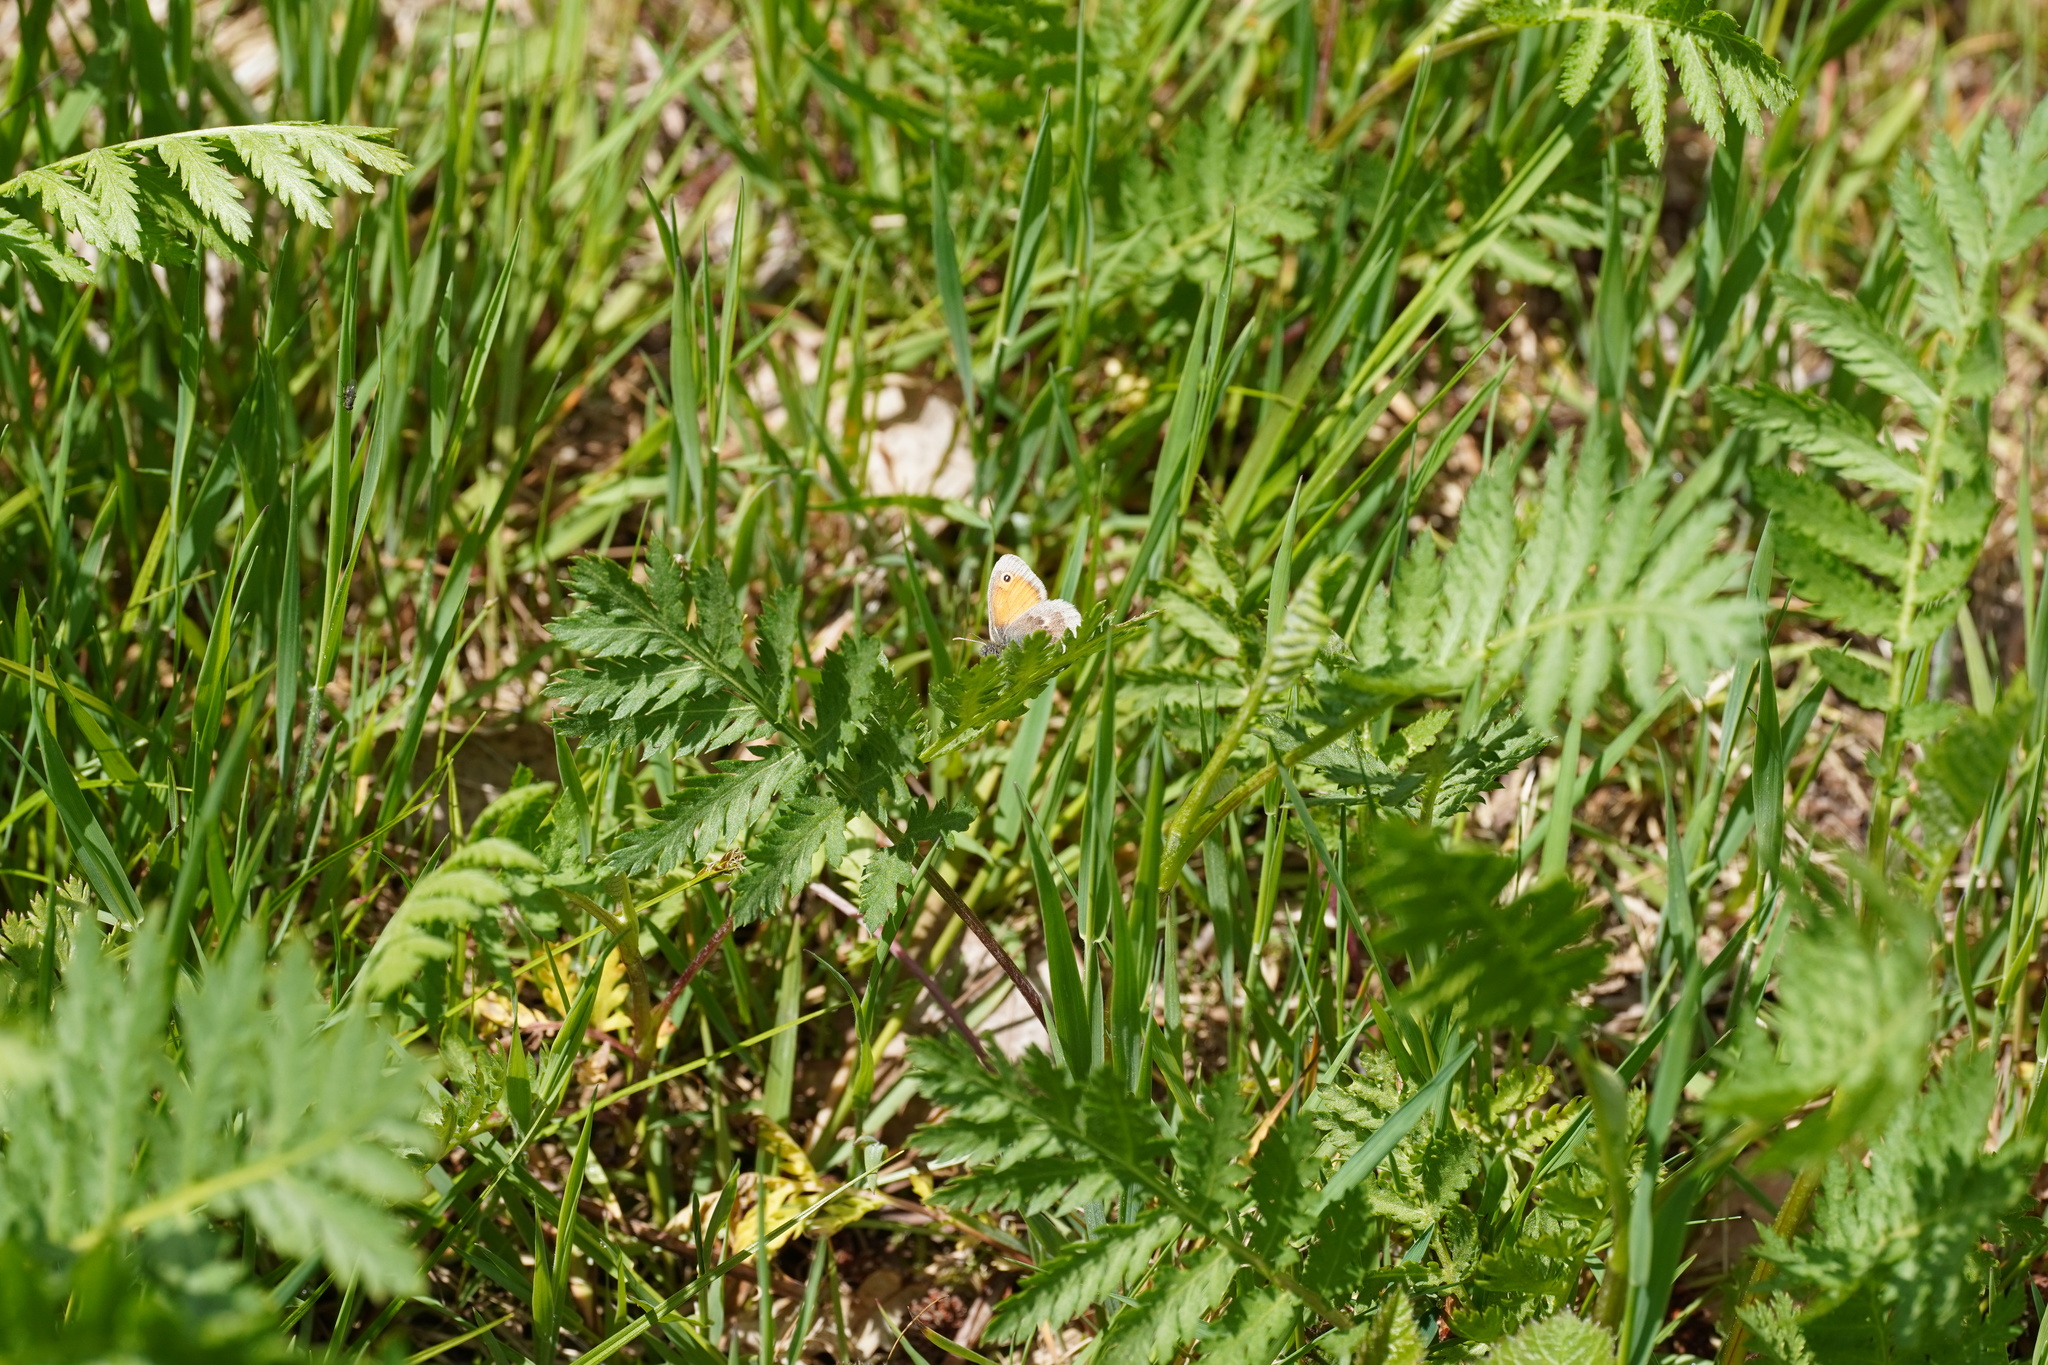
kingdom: Animalia
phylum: Arthropoda
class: Insecta
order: Lepidoptera
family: Nymphalidae
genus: Coenonympha
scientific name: Coenonympha pamphilus
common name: Small heath
